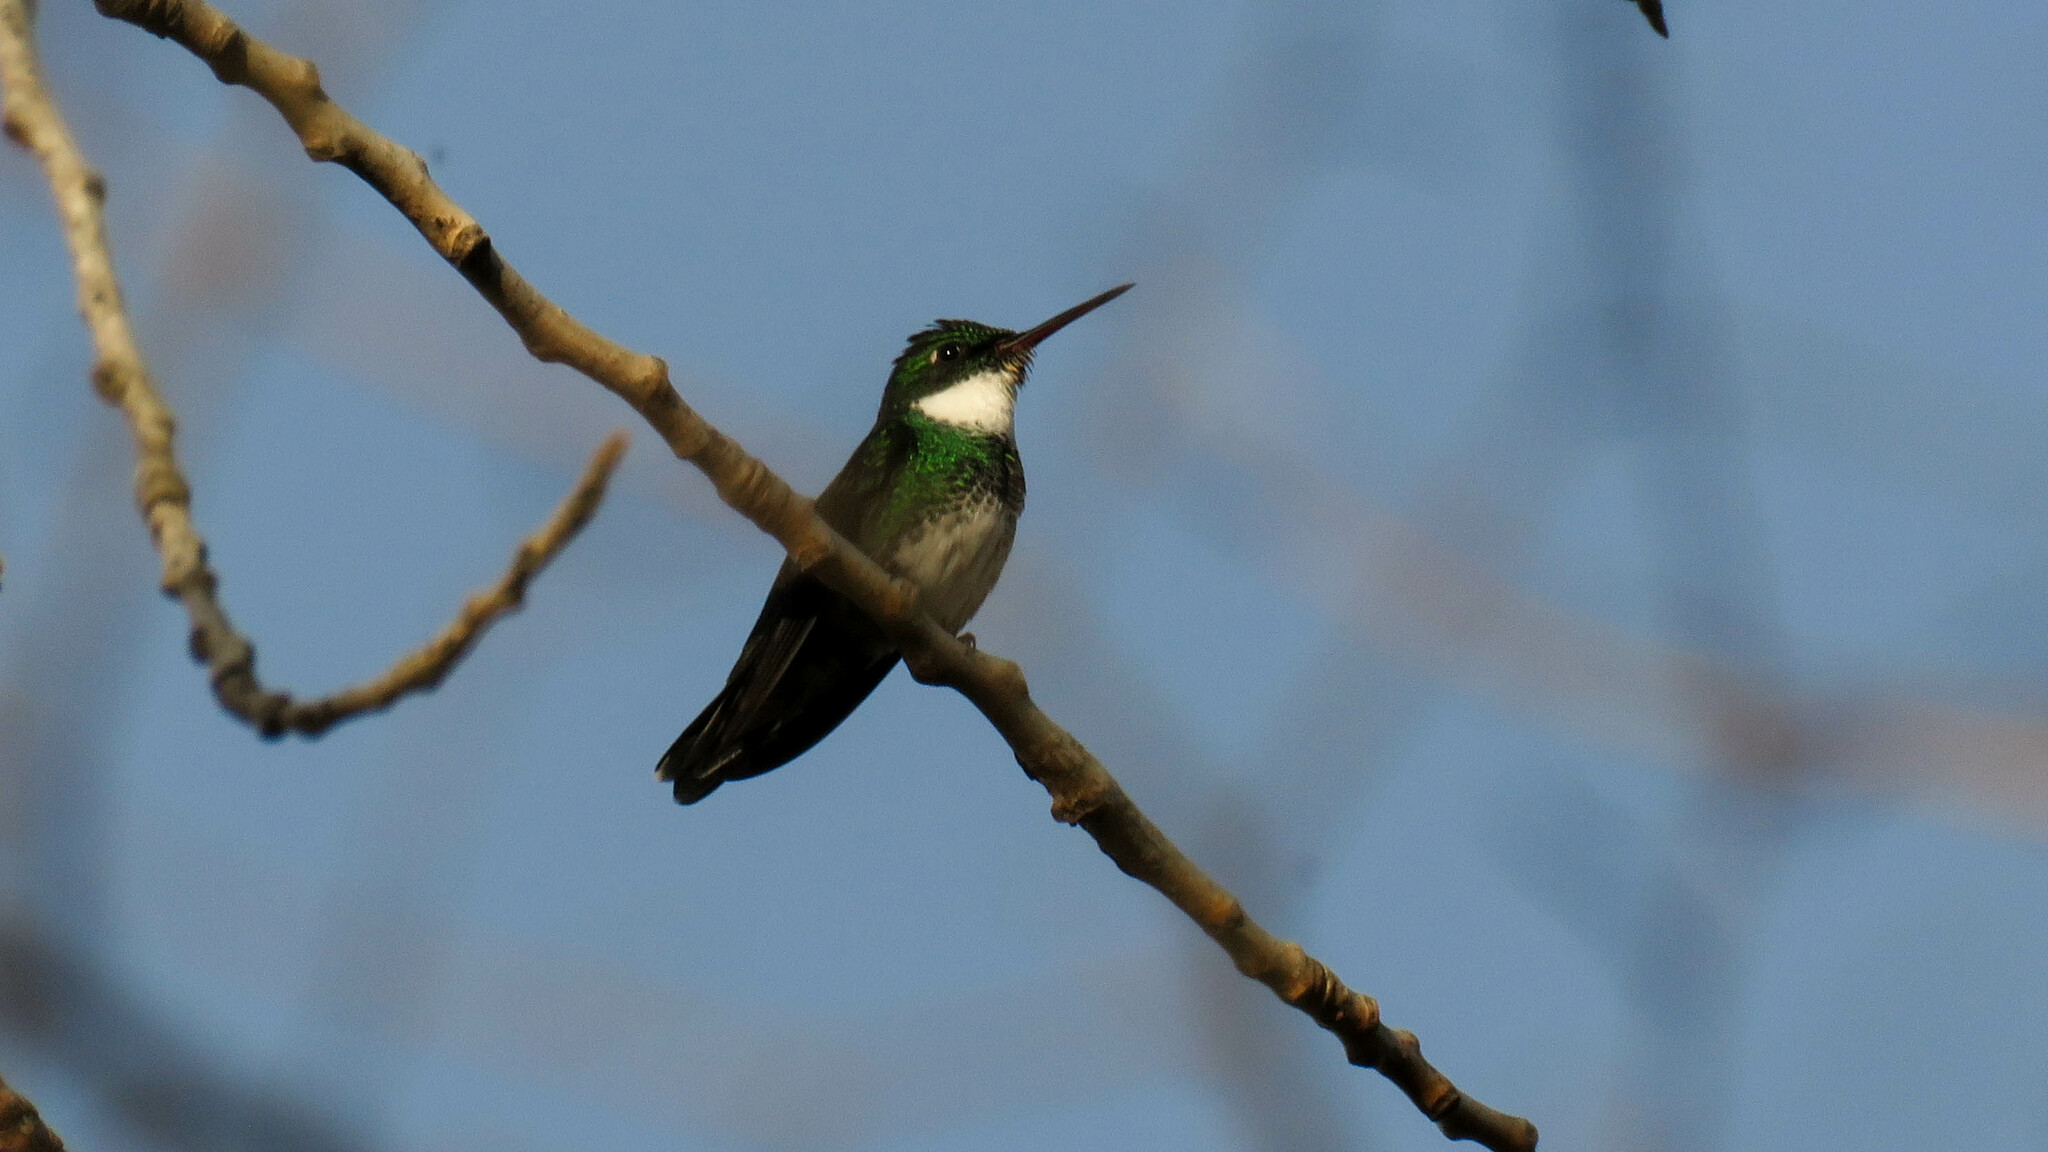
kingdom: Animalia
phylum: Chordata
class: Aves
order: Apodiformes
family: Trochilidae
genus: Leucochloris
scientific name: Leucochloris albicollis
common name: White-throated hummingbird
